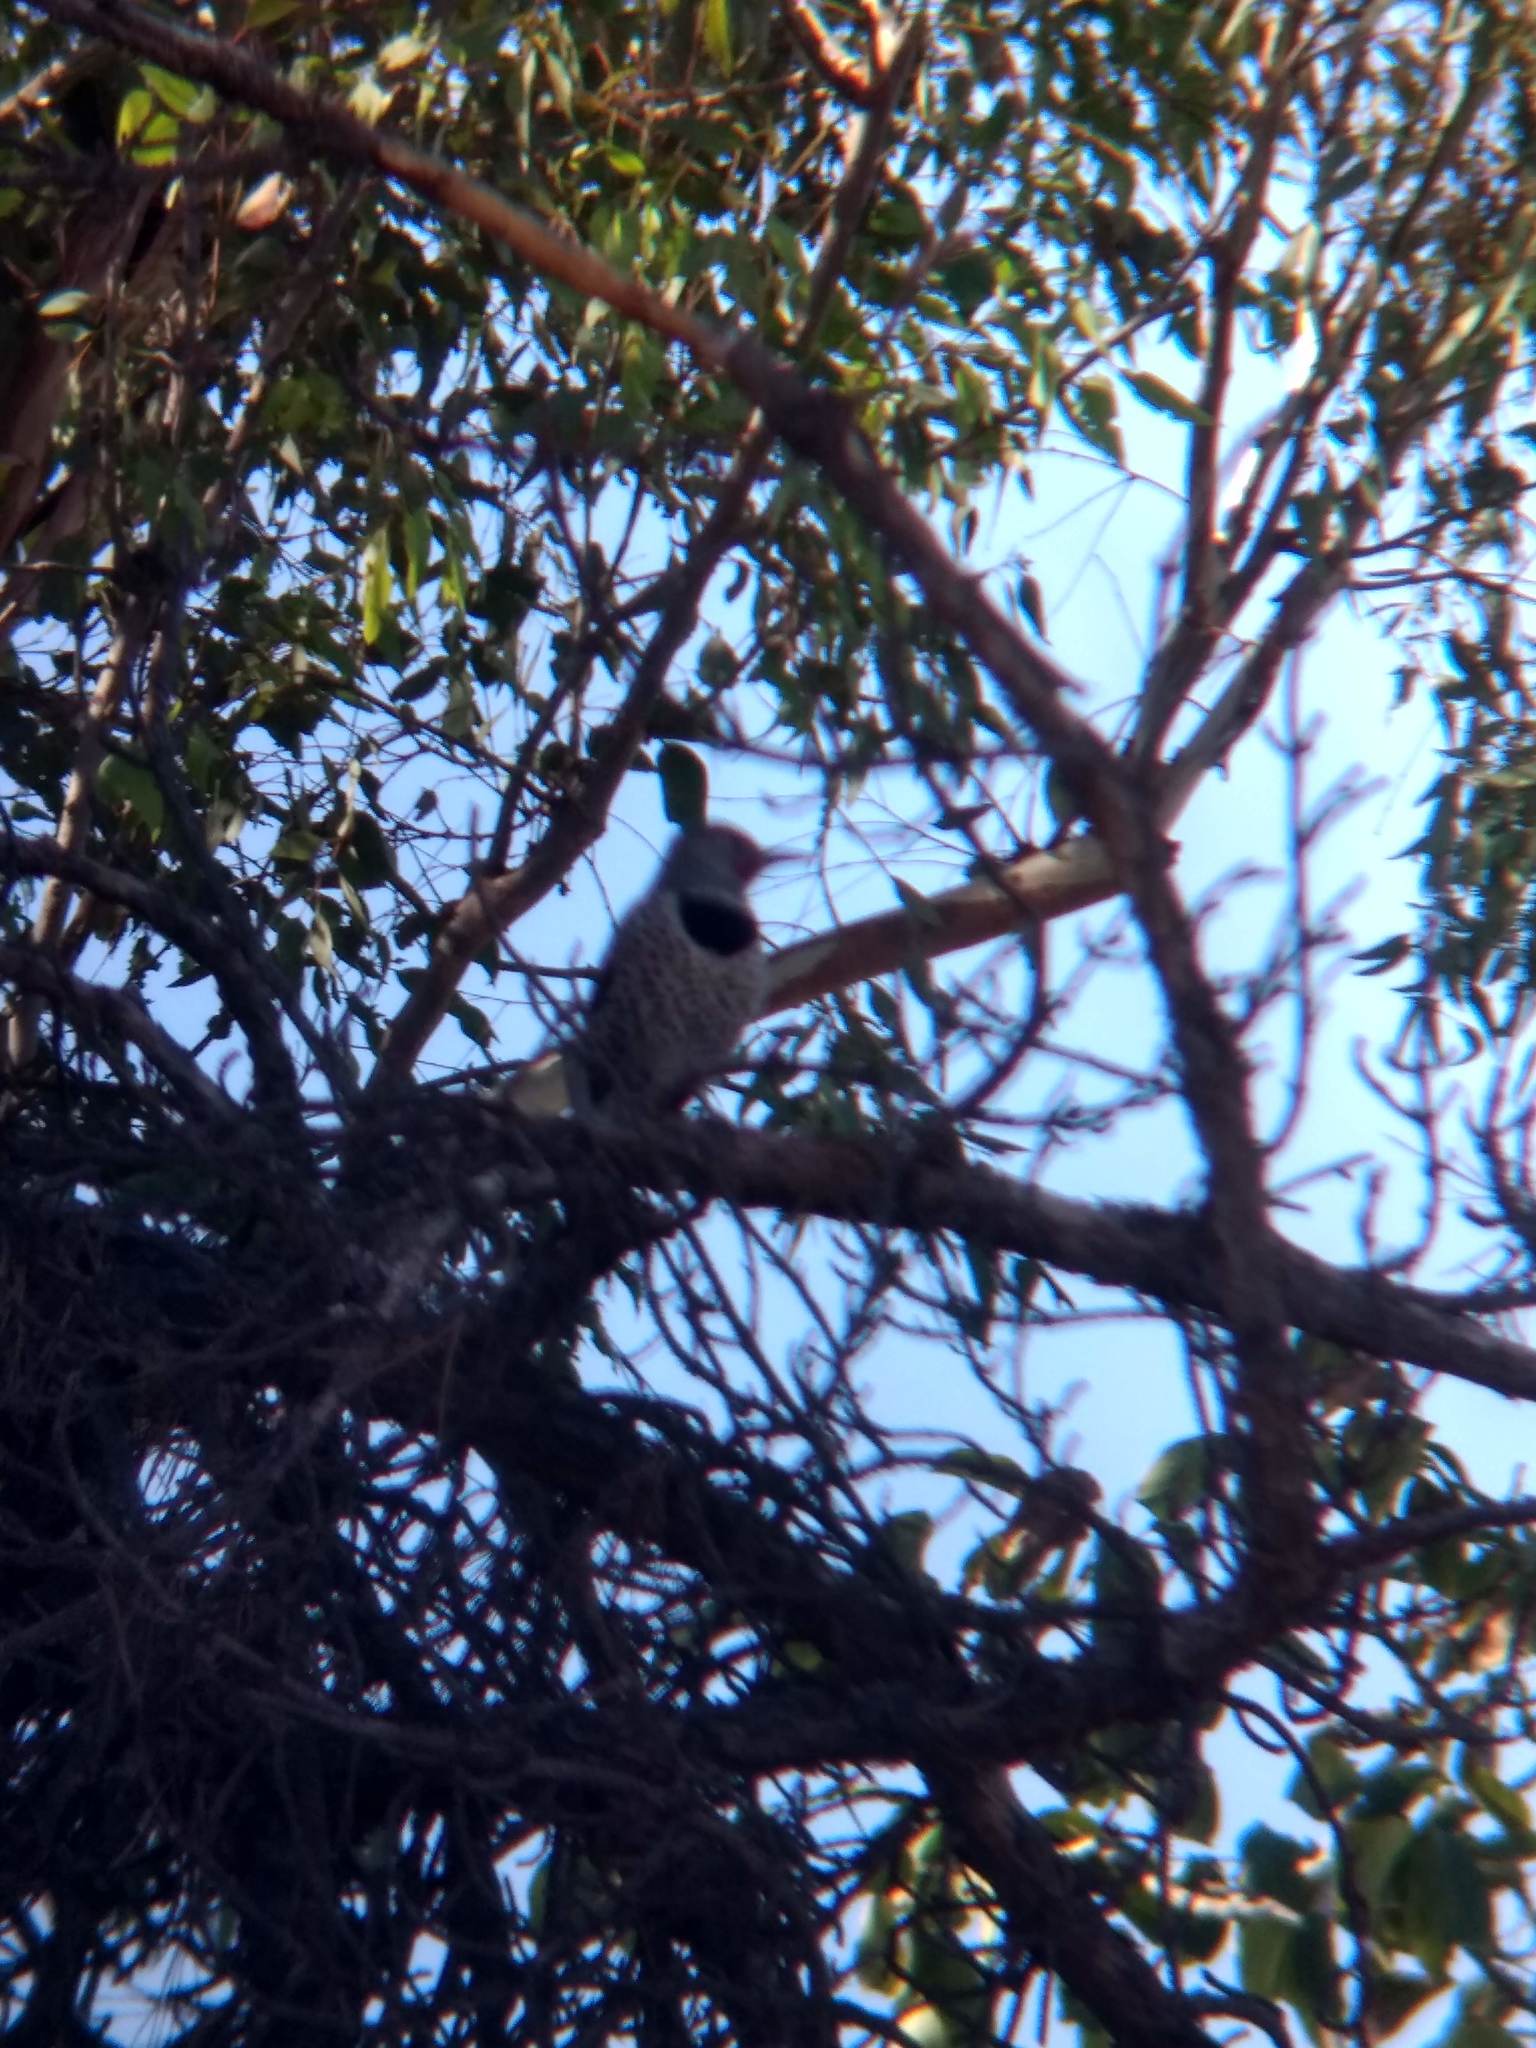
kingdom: Animalia
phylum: Chordata
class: Aves
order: Piciformes
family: Picidae
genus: Colaptes
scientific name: Colaptes auratus
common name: Northern flicker
